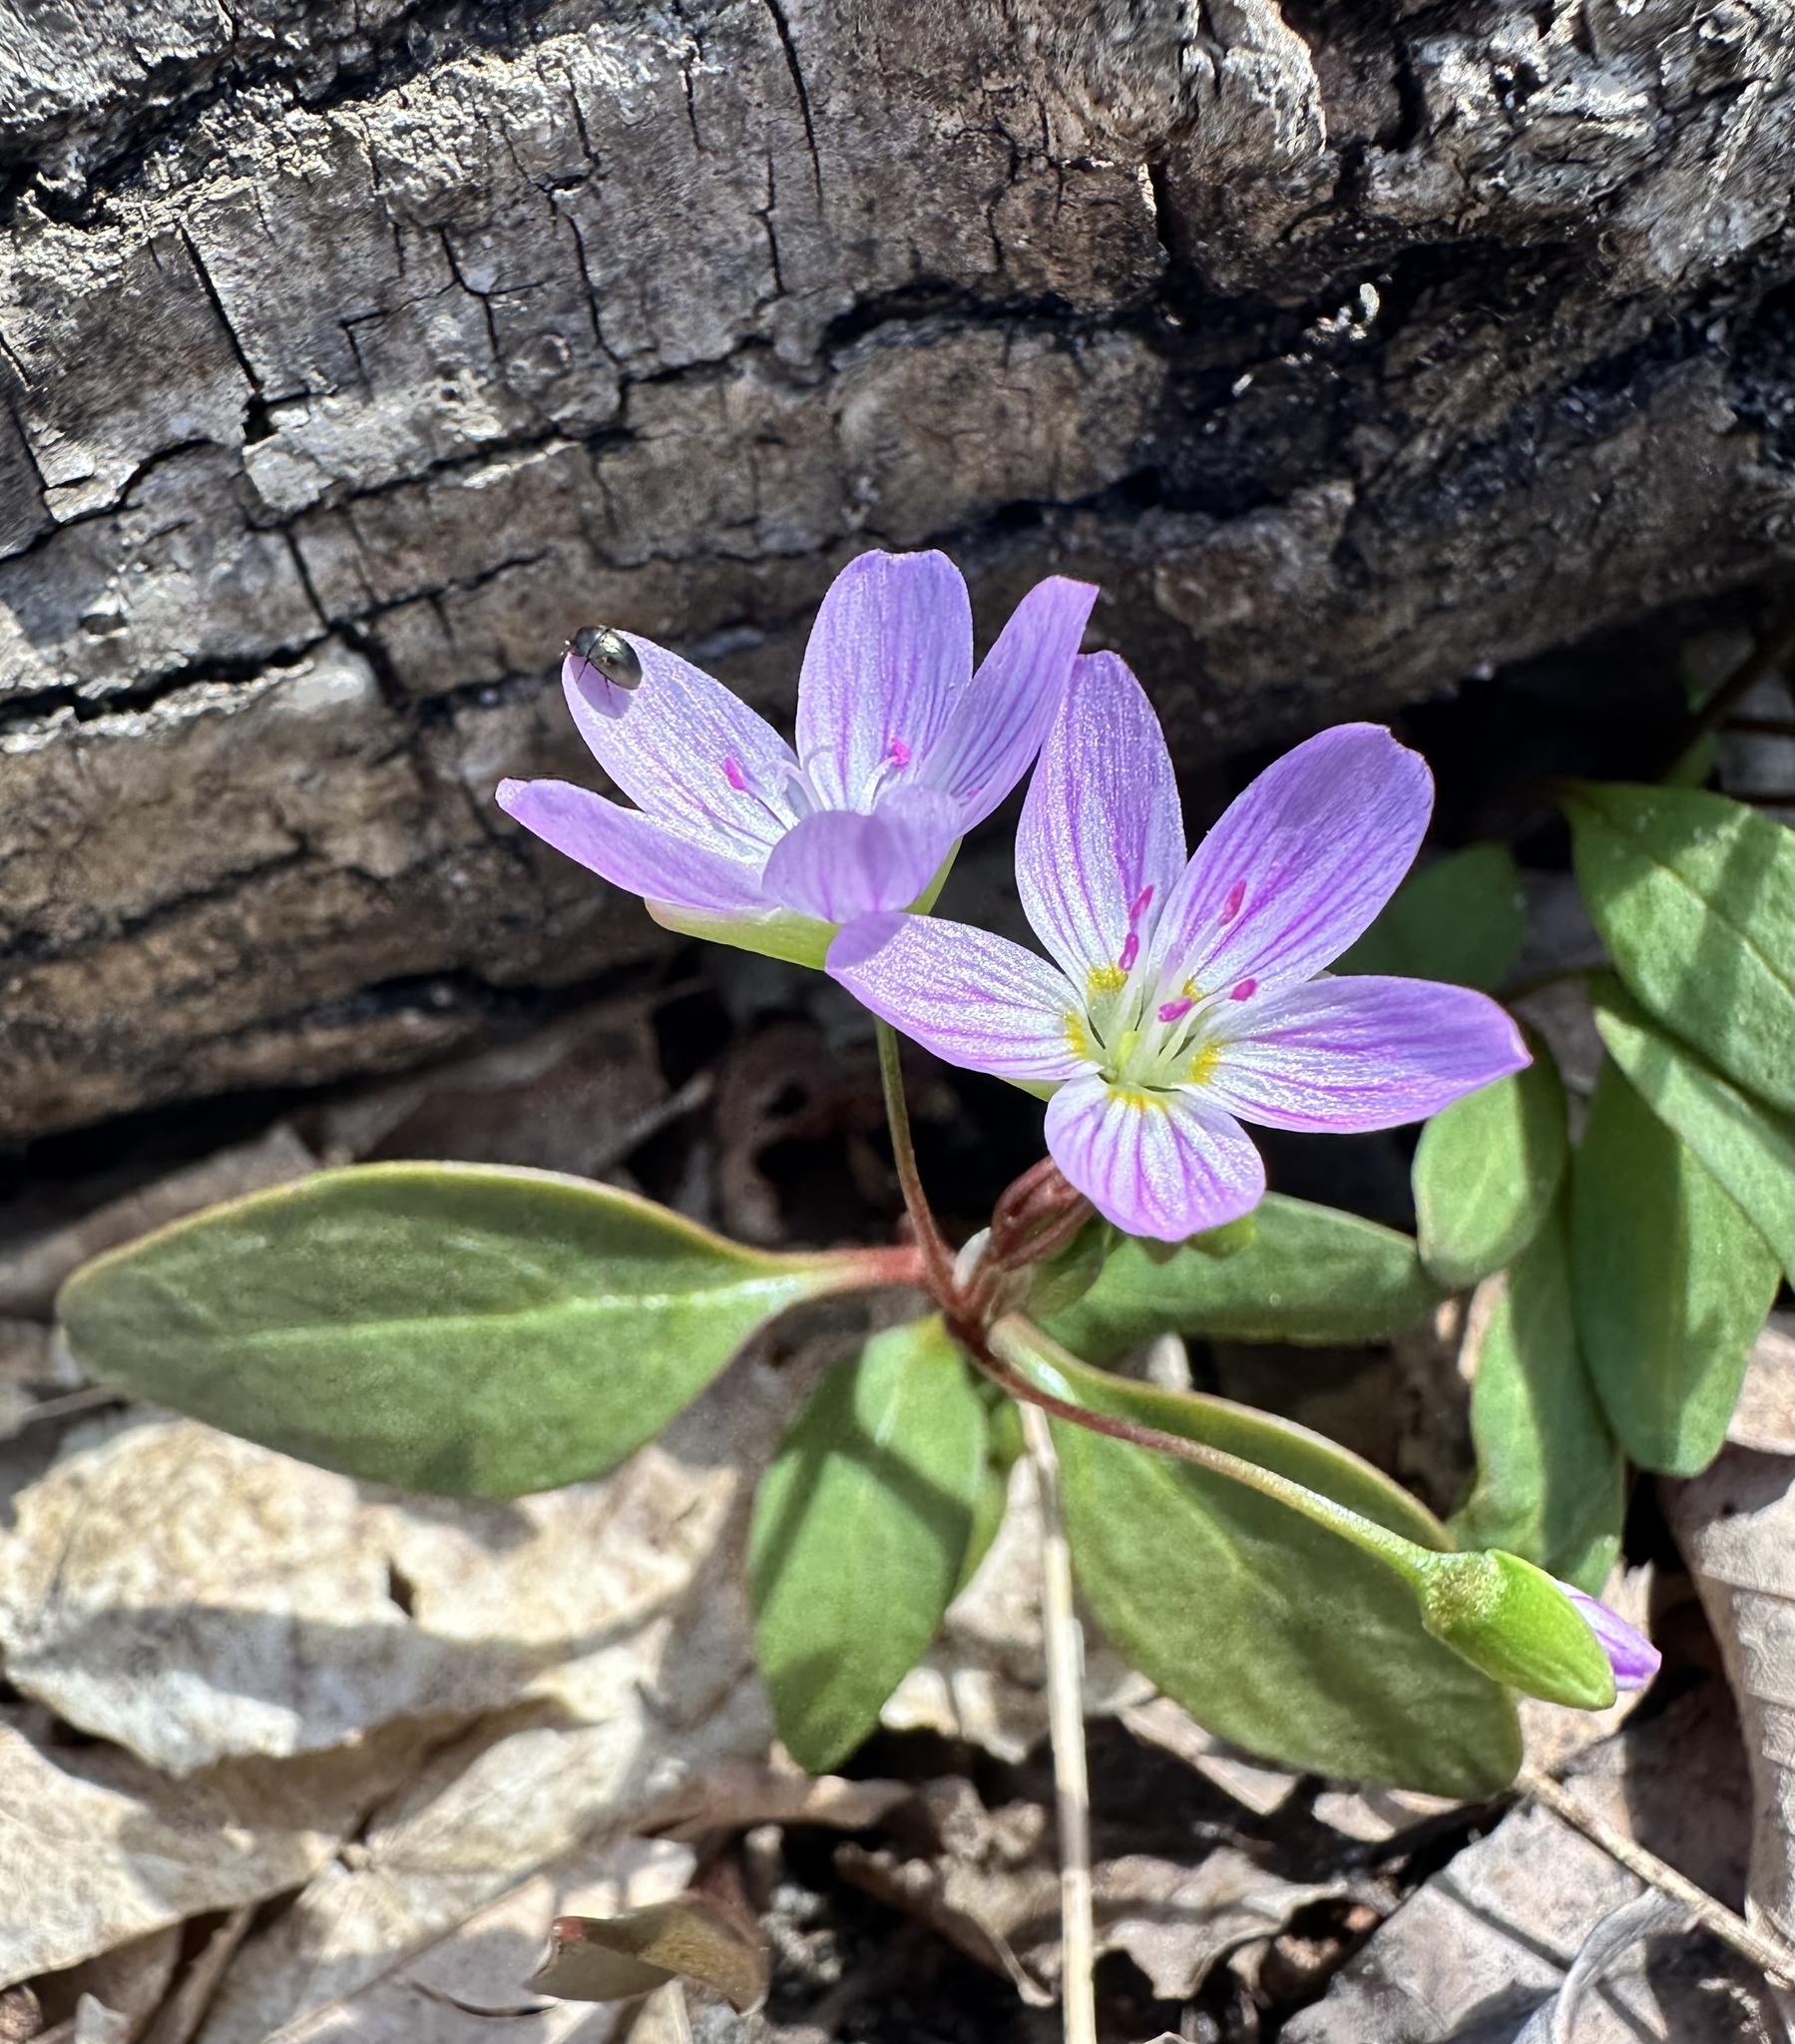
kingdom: Plantae
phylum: Tracheophyta
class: Magnoliopsida
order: Caryophyllales
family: Montiaceae
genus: Claytonia
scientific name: Claytonia caroliniana
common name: Carolina spring beauty
